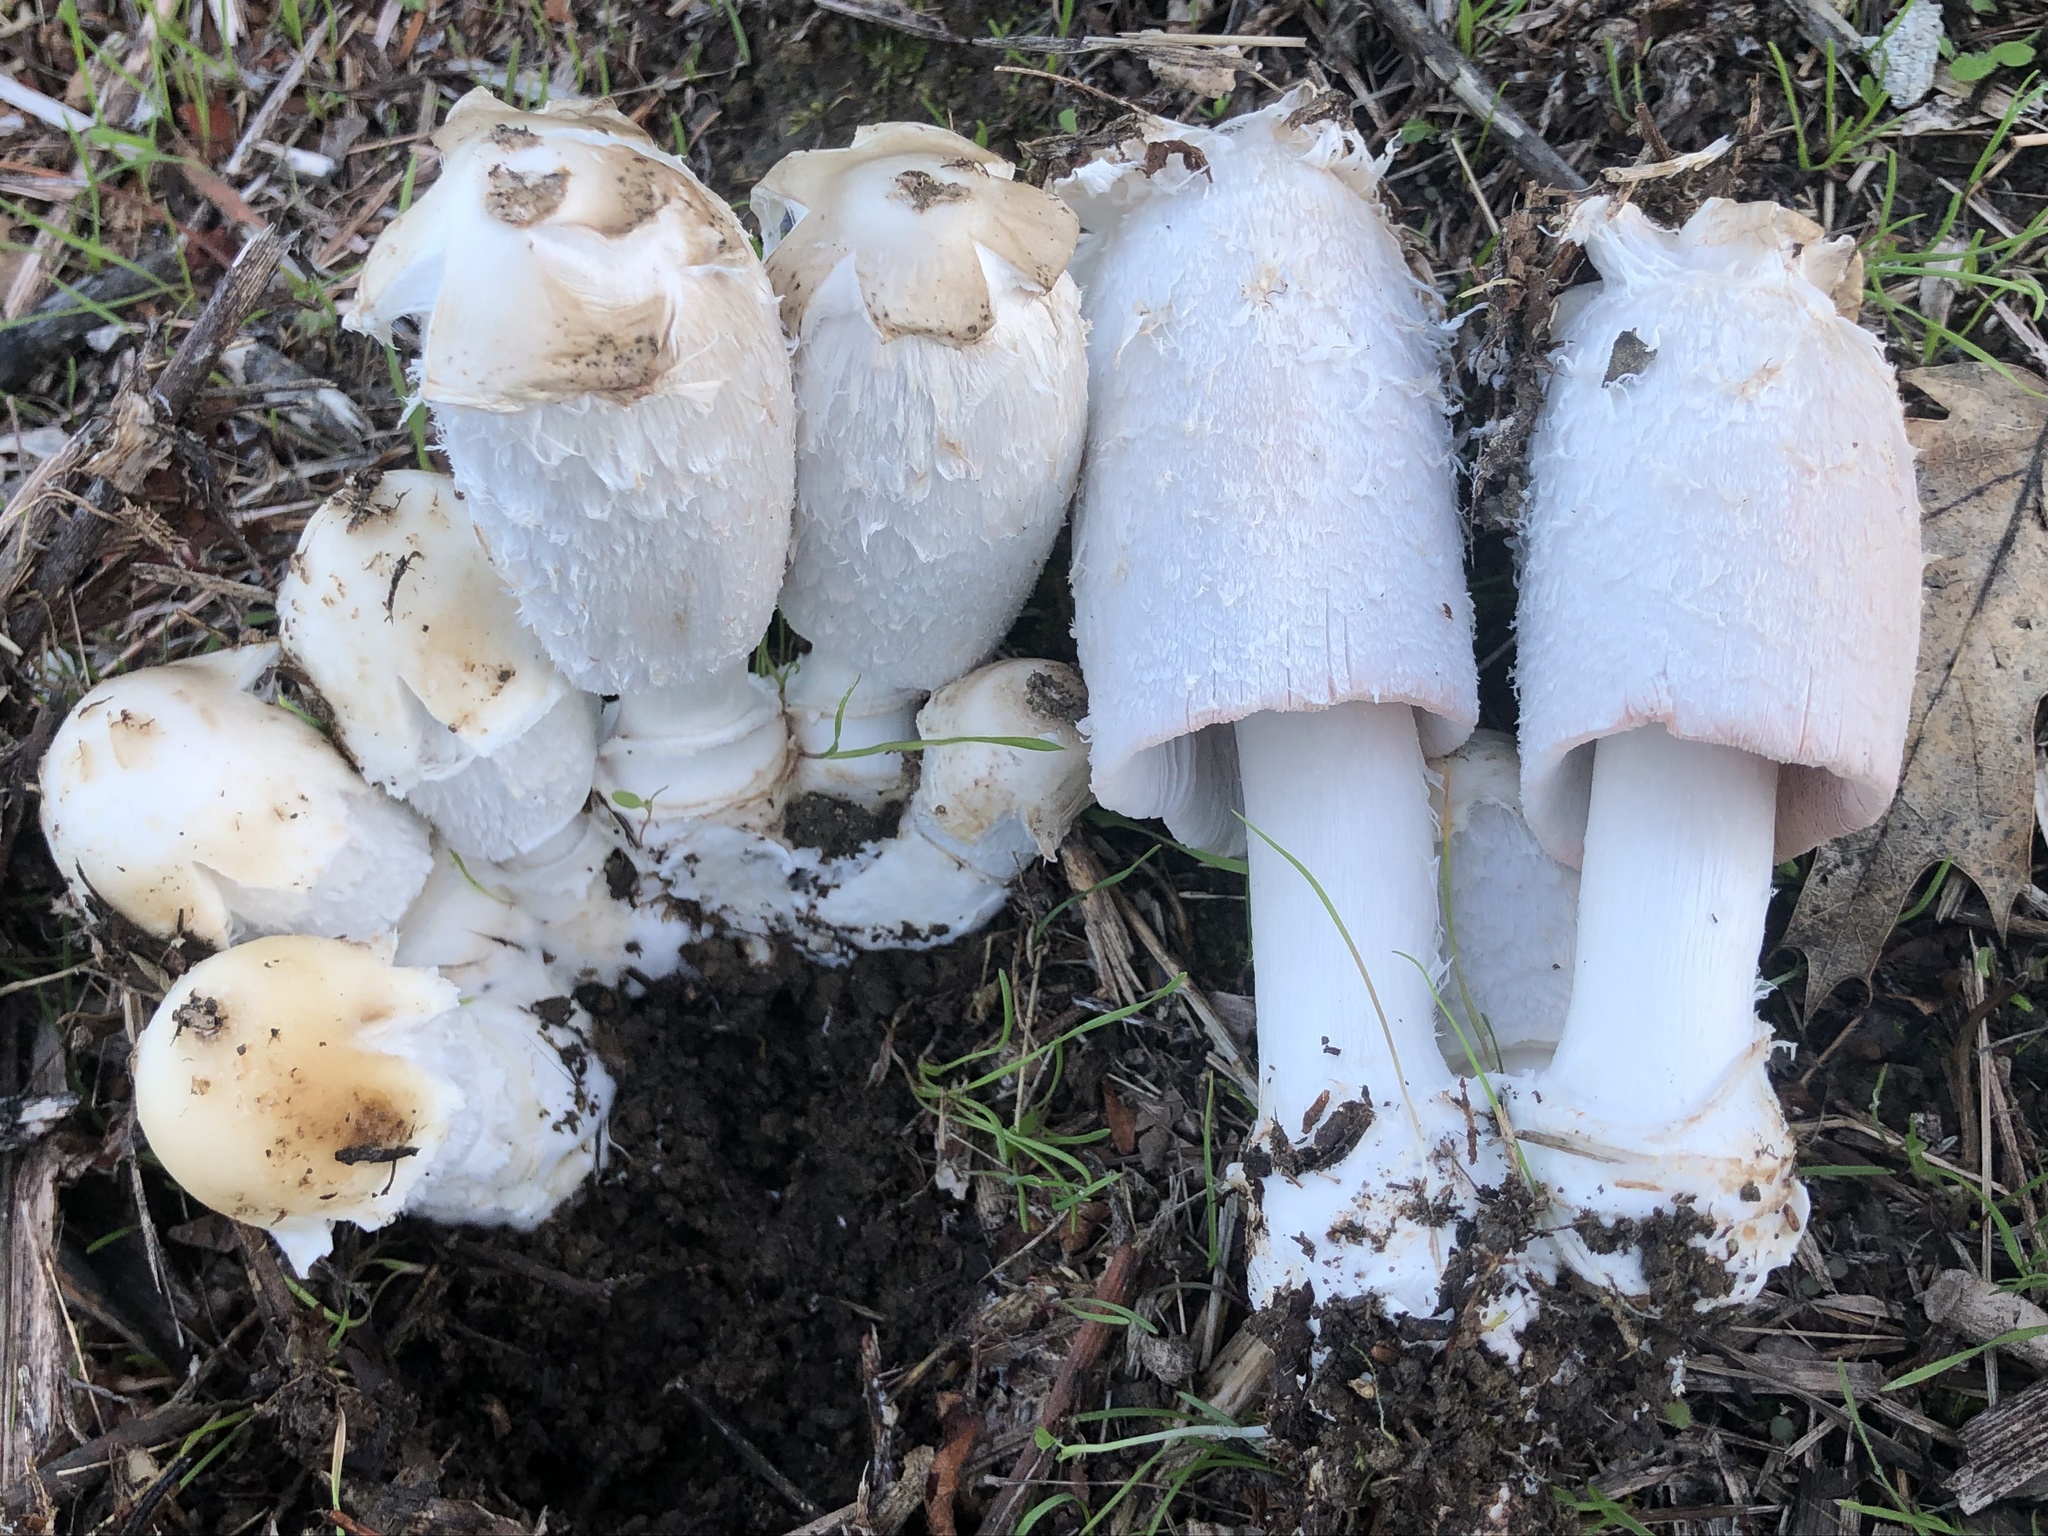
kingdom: Fungi
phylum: Basidiomycota
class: Agaricomycetes
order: Agaricales
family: Agaricaceae
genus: Coprinus
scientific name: Coprinus comatus
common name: Lawyer's wig
